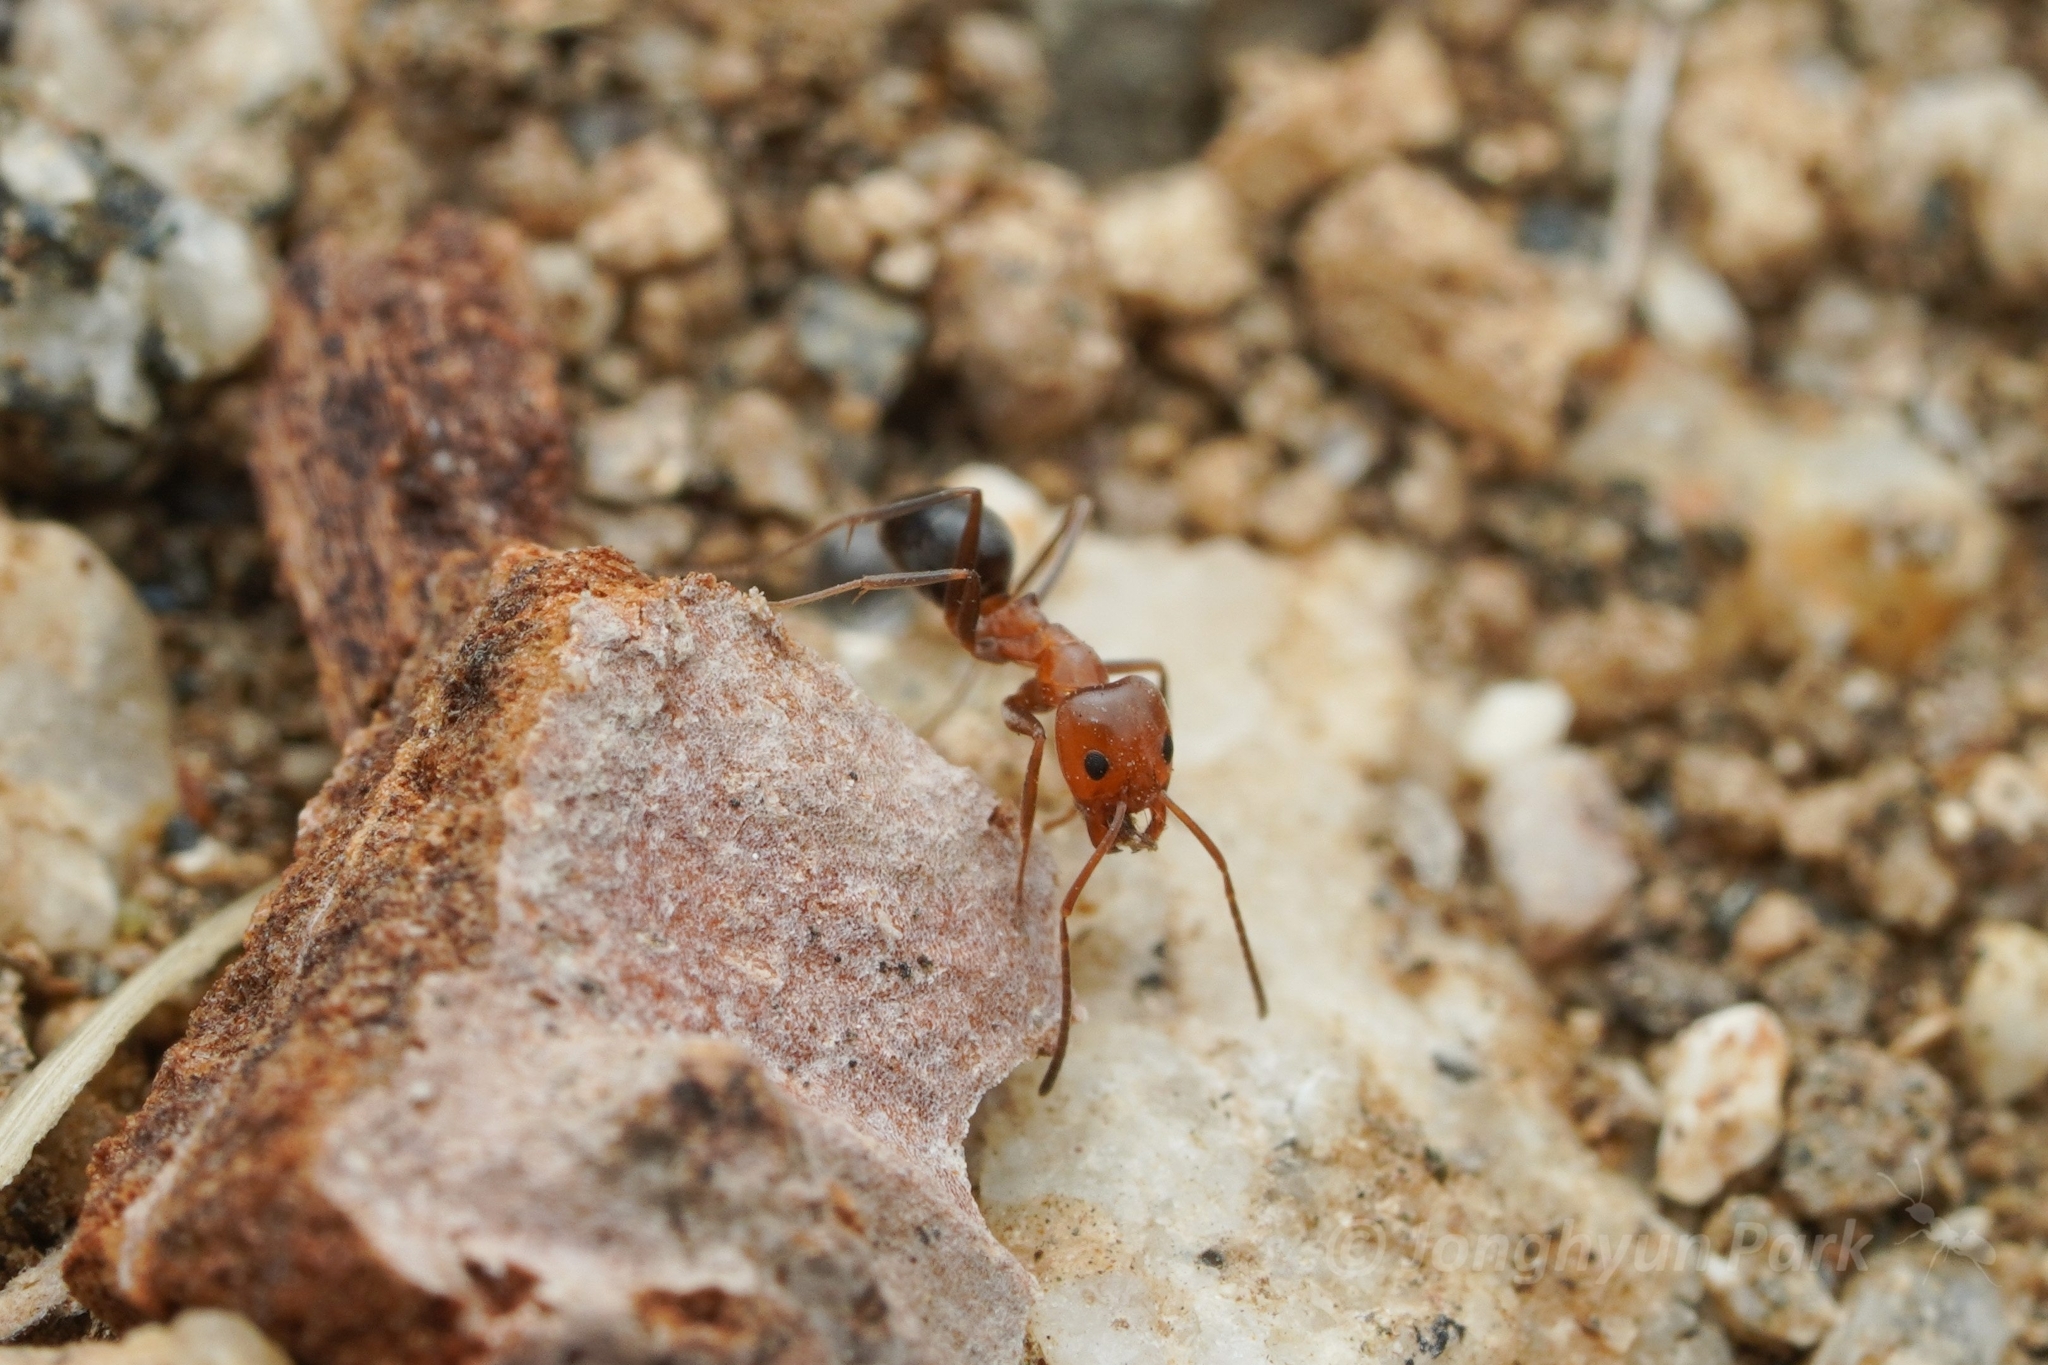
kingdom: Animalia
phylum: Arthropoda
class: Insecta
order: Hymenoptera
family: Formicidae
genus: Dorymyrmex
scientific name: Dorymyrmex bicolor
